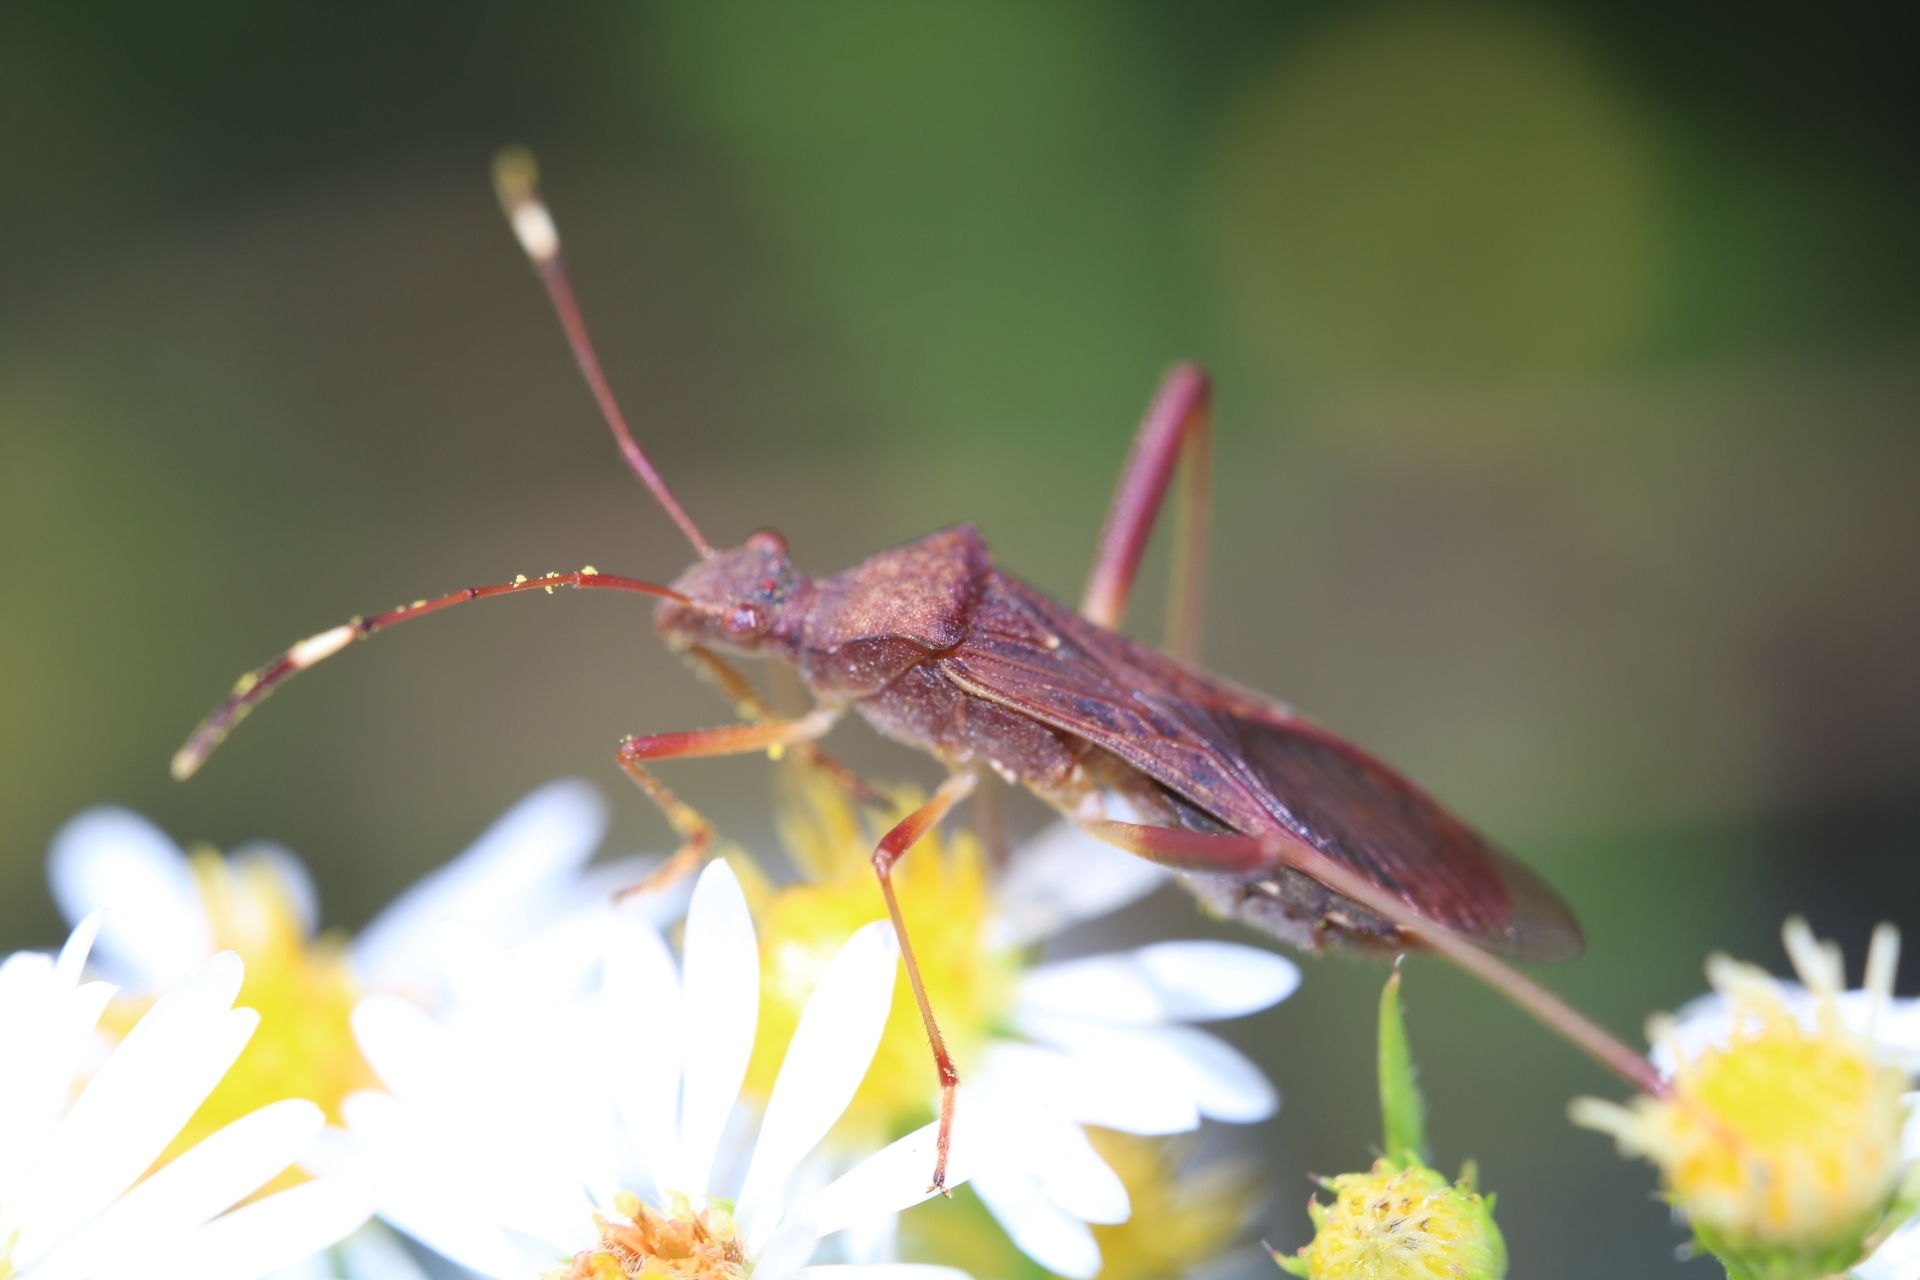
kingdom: Animalia
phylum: Arthropoda
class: Insecta
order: Hemiptera
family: Alydidae
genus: Megalotomus
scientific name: Megalotomus quinquespinosus
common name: Lupine bug
